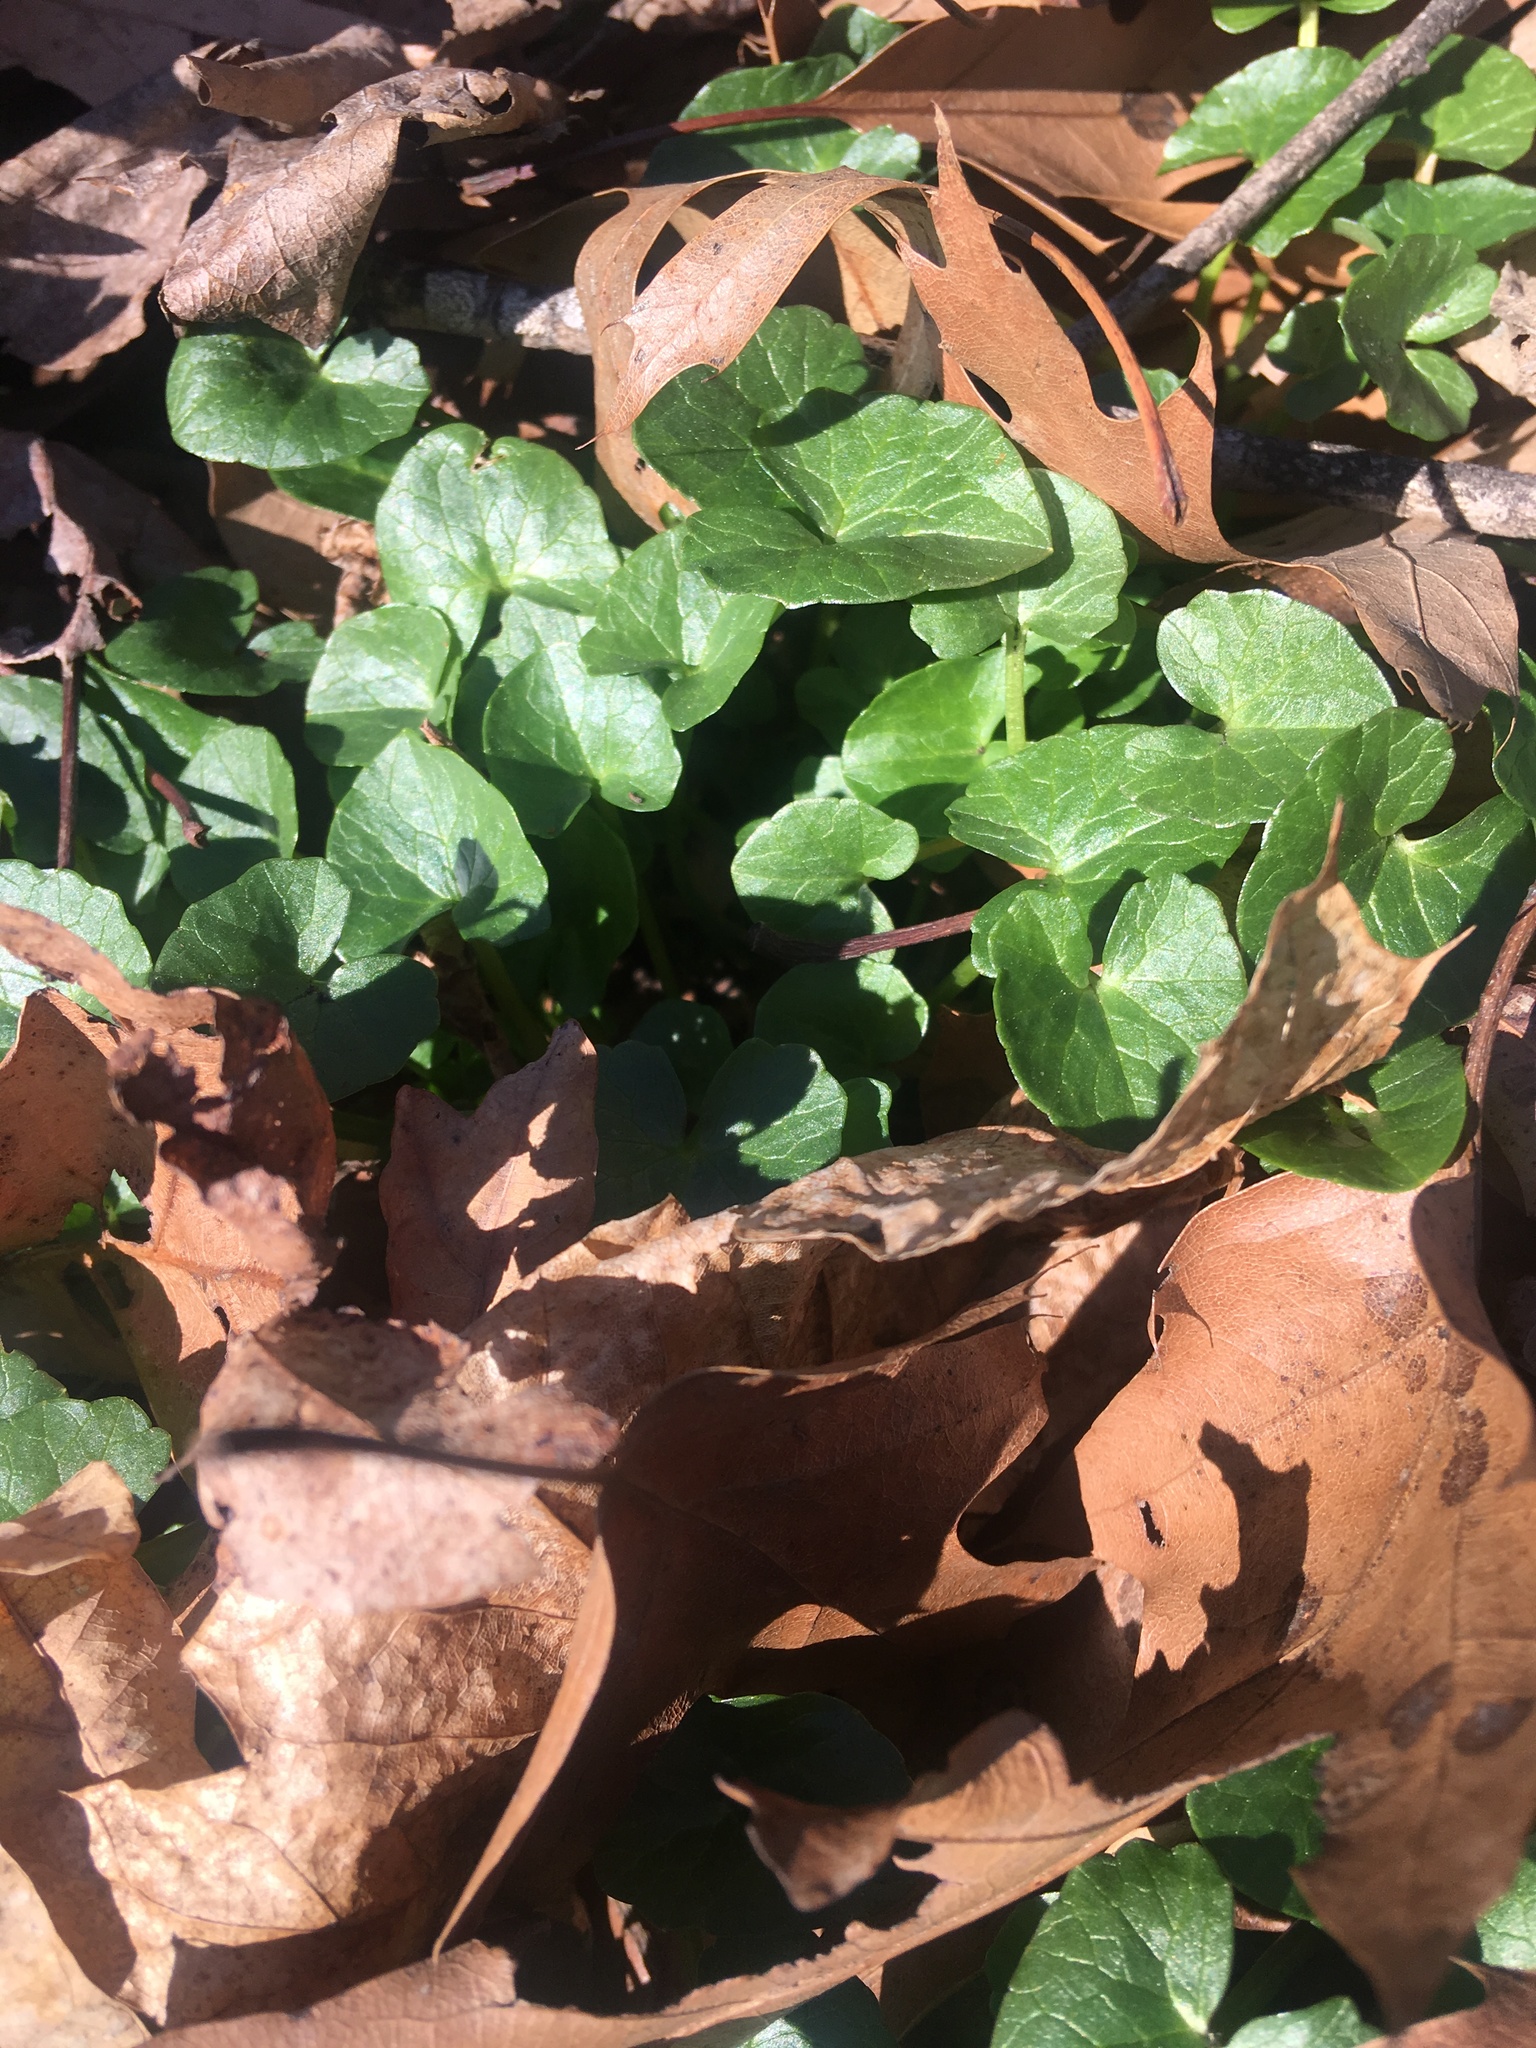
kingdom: Plantae
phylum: Tracheophyta
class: Magnoliopsida
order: Ranunculales
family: Ranunculaceae
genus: Ficaria
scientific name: Ficaria verna
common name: Lesser celandine
